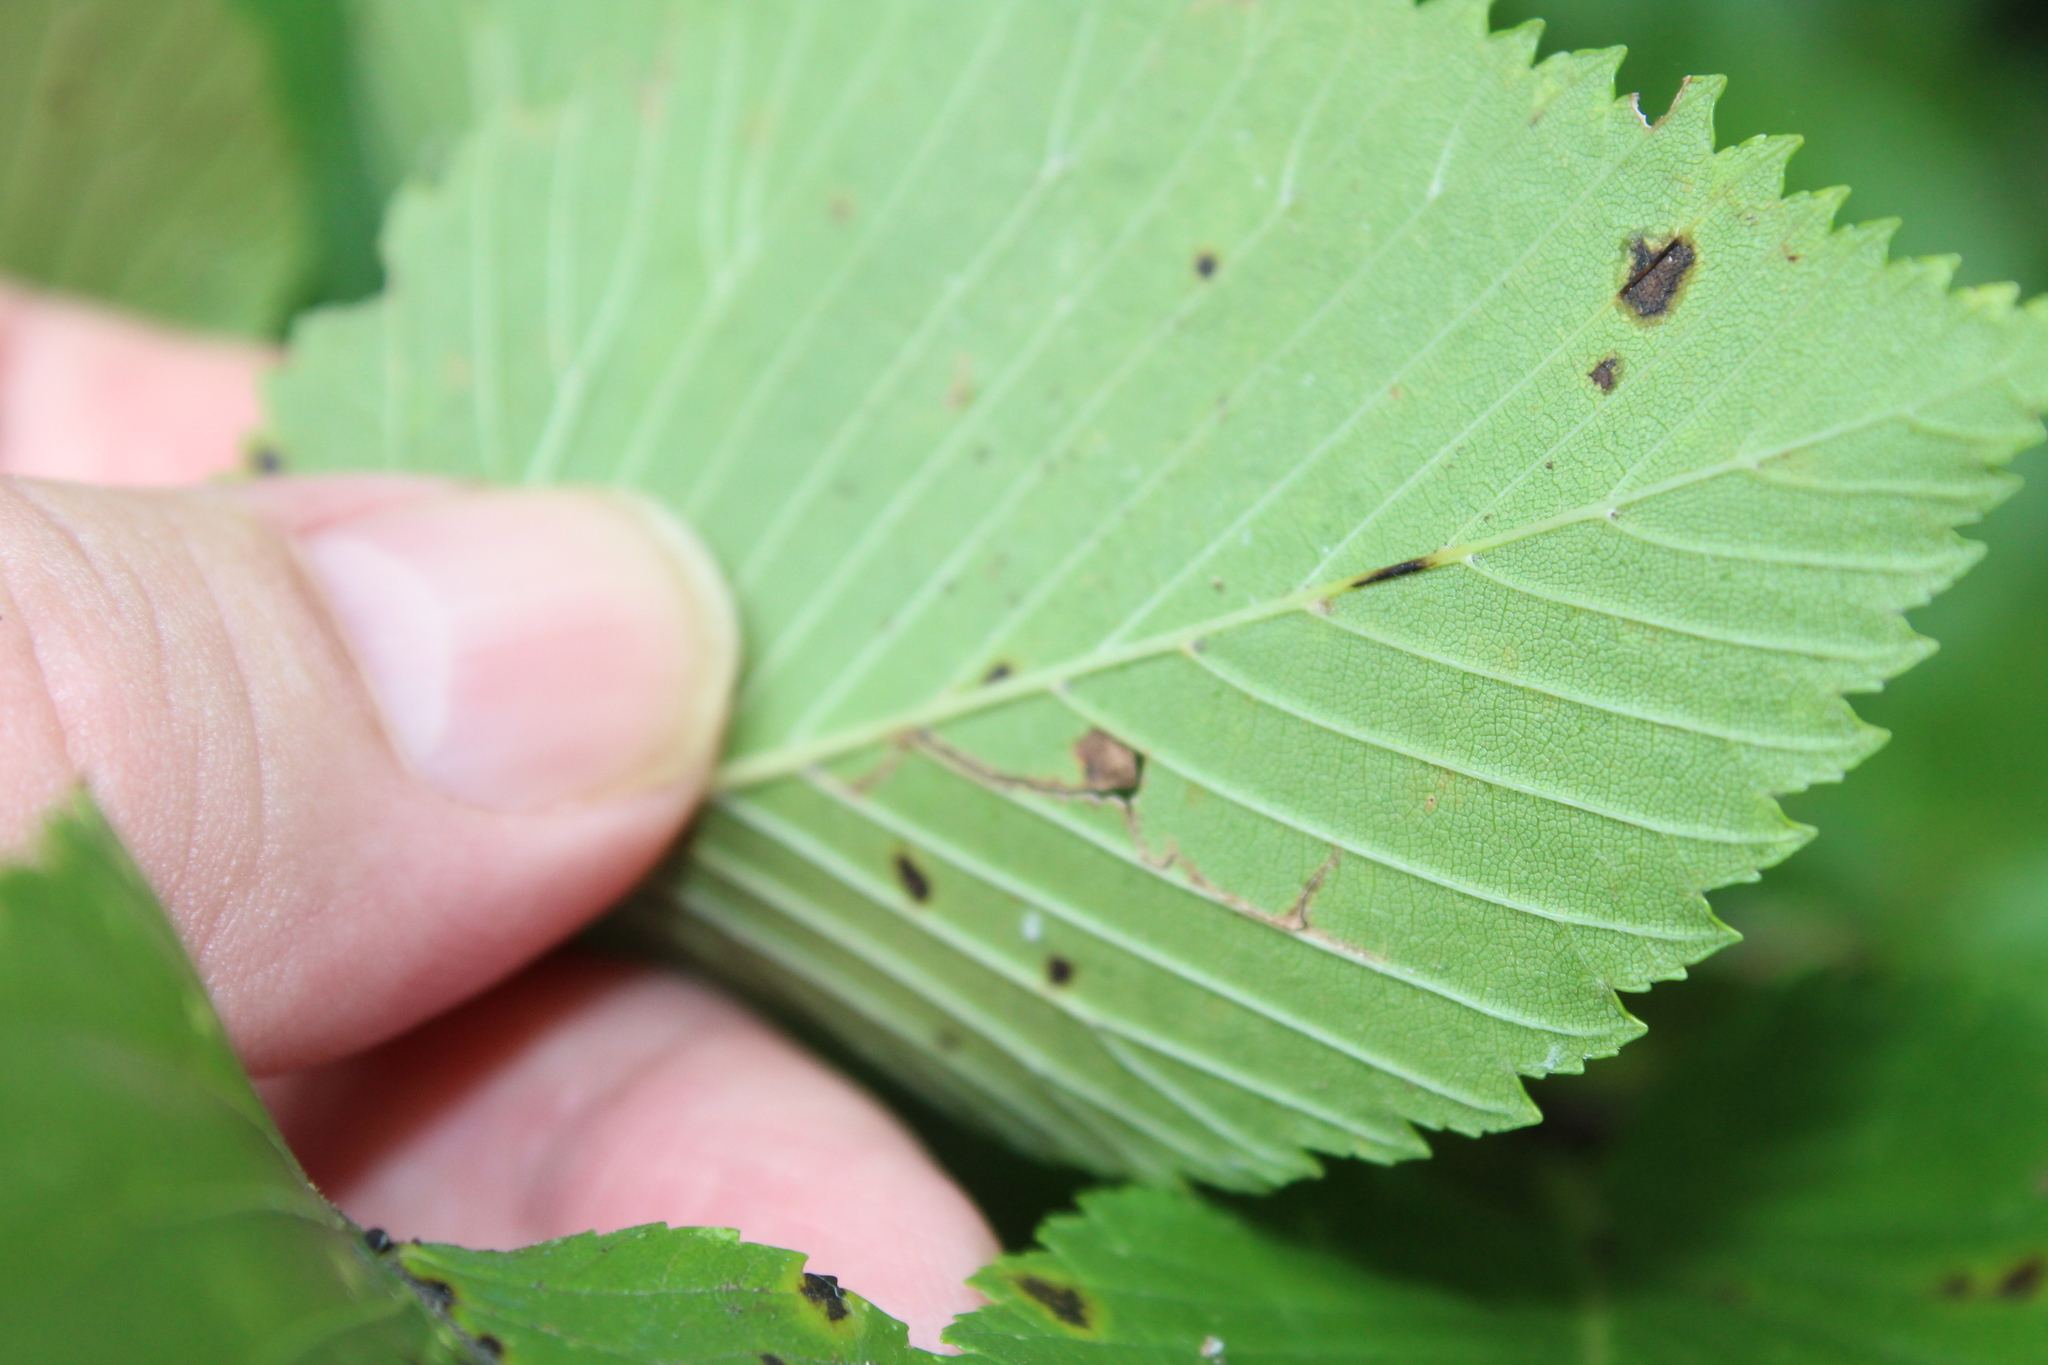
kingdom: Animalia
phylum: Arthropoda
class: Arachnida
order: Trombidiformes
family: Eriophyidae
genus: Aceria
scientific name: Aceria
